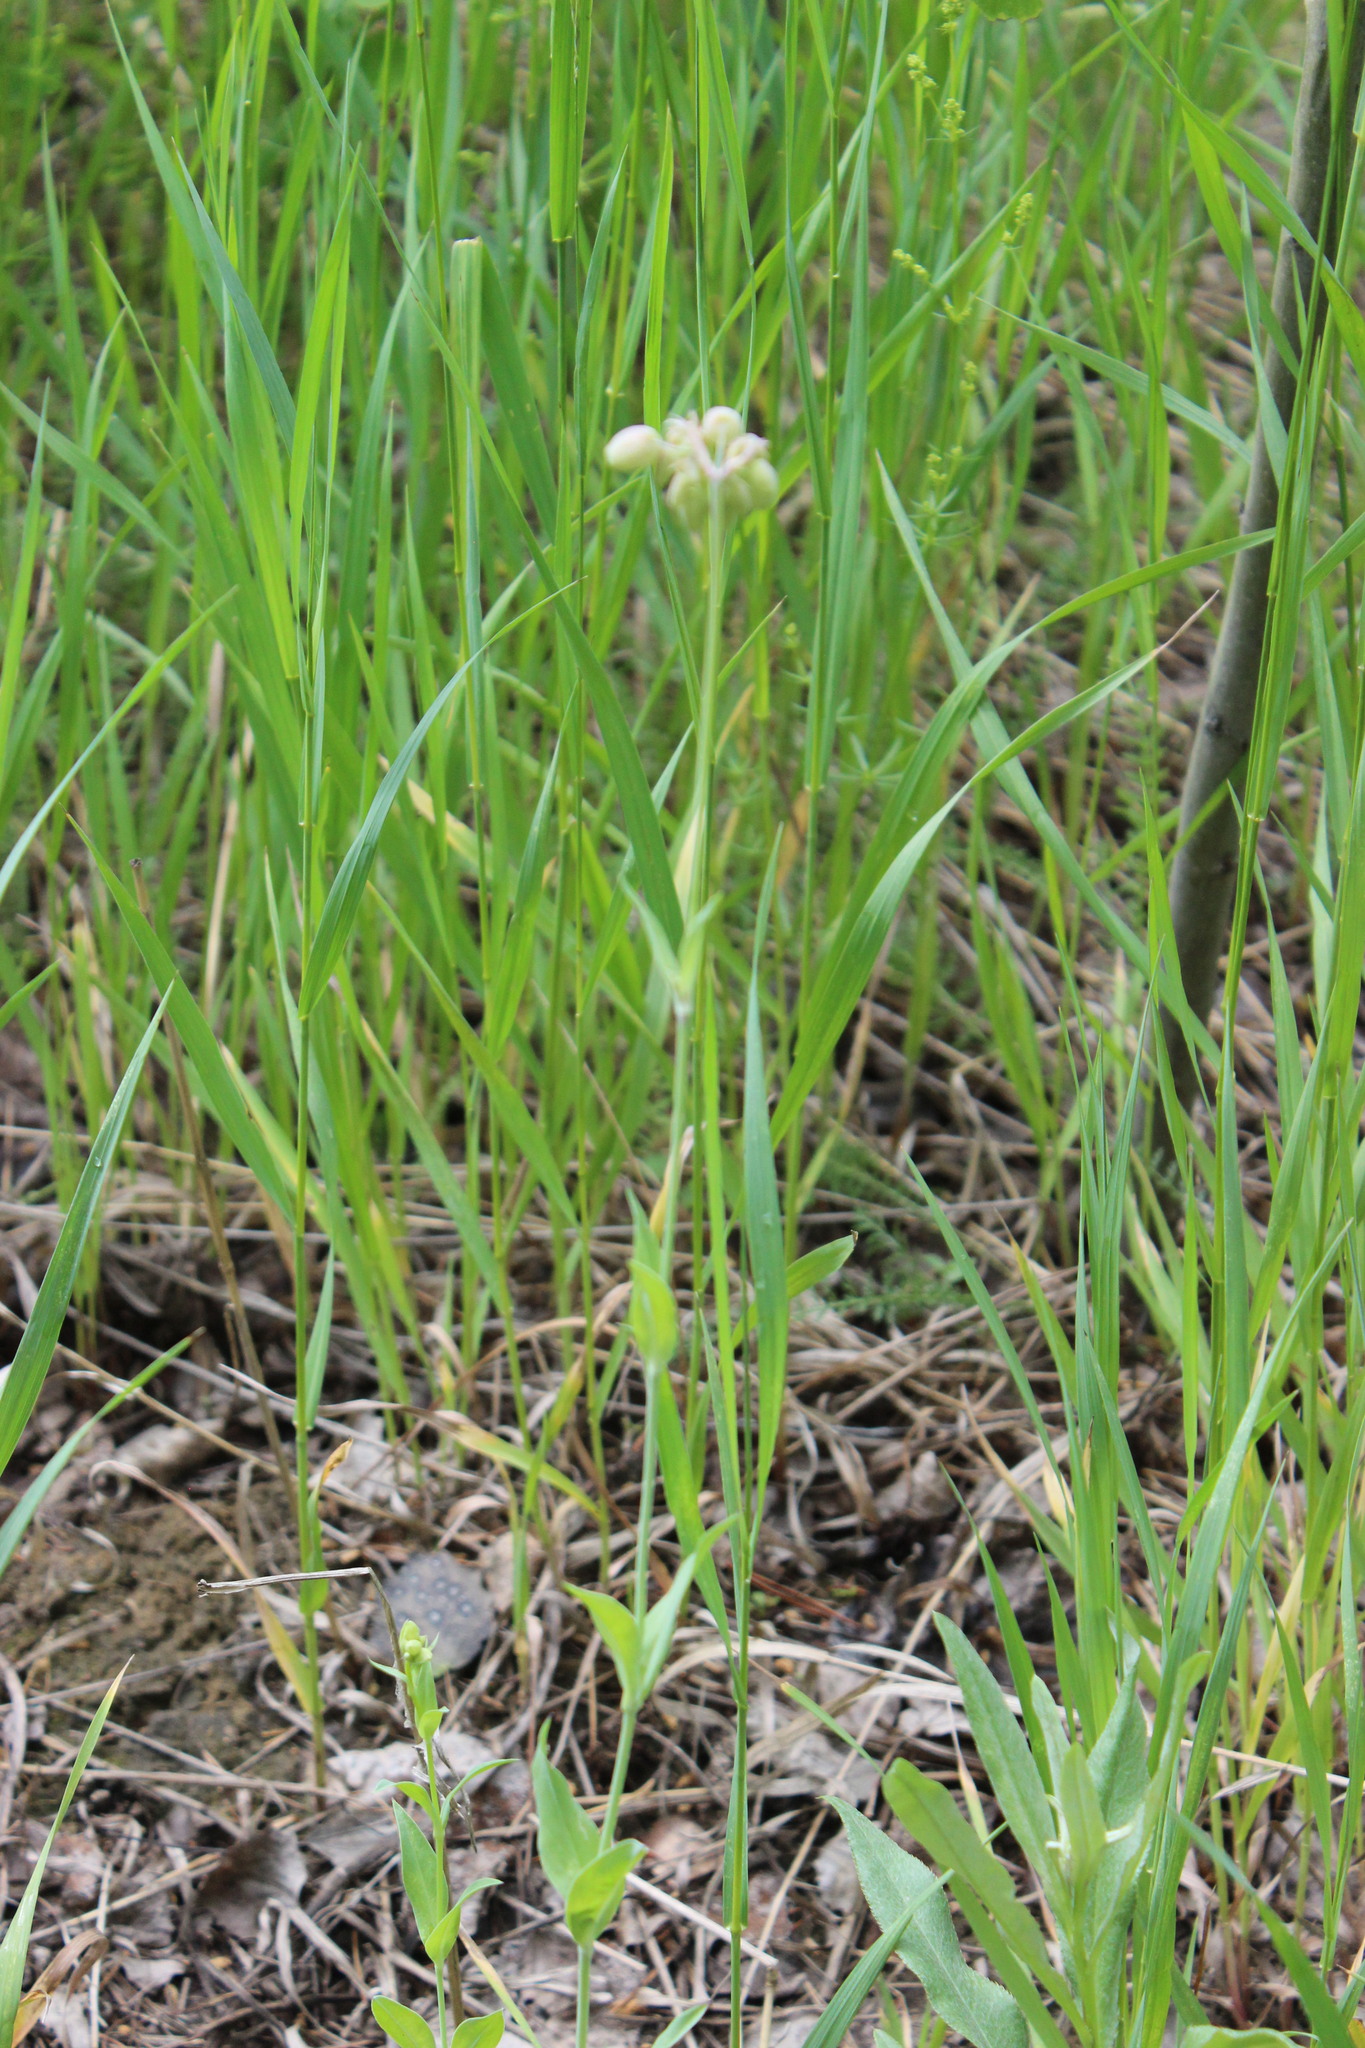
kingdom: Plantae
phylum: Tracheophyta
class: Magnoliopsida
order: Caryophyllales
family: Caryophyllaceae
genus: Silene
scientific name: Silene vulgaris
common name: Bladder campion
